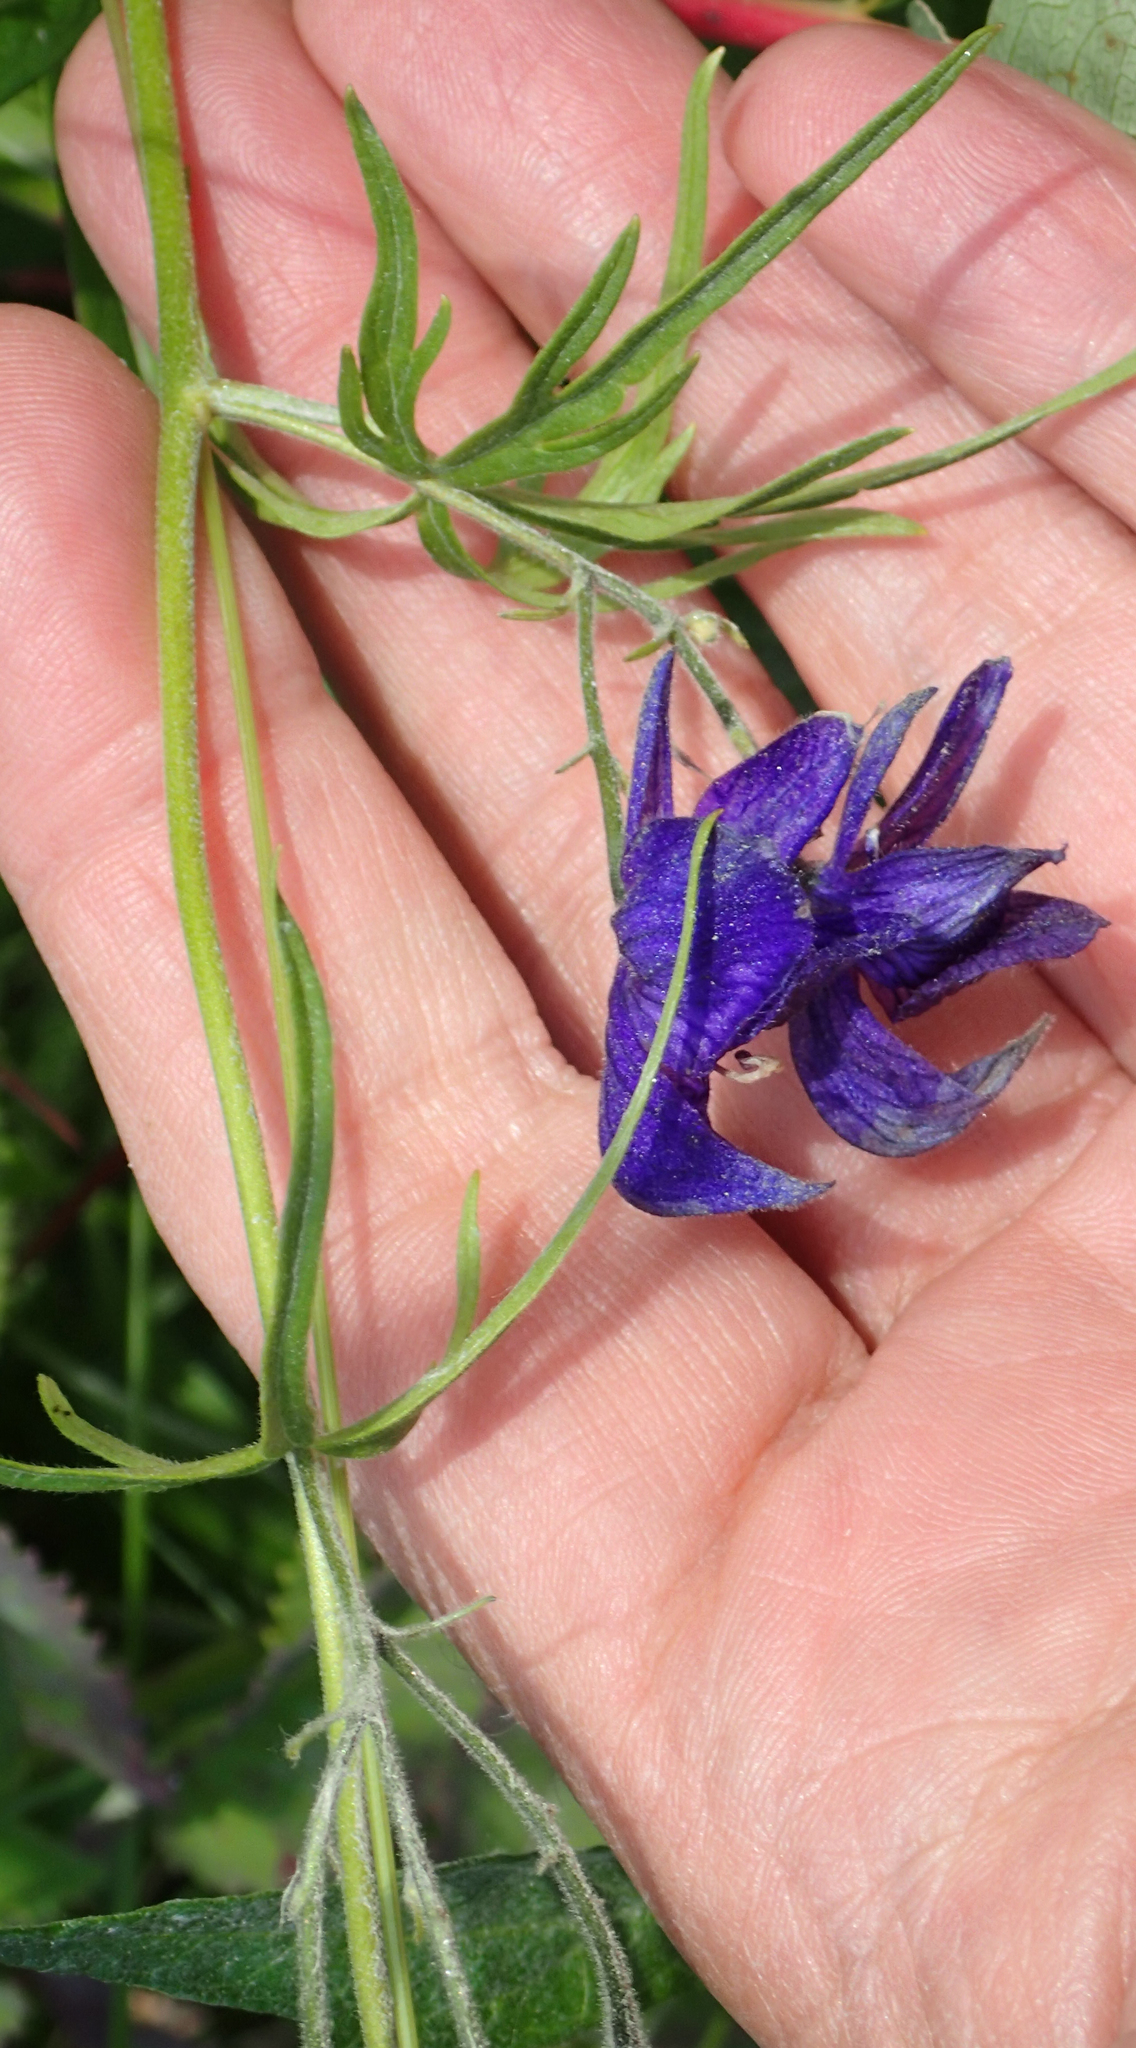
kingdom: Plantae
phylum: Tracheophyta
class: Magnoliopsida
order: Ranunculales
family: Ranunculaceae
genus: Aconitum
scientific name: Aconitum delphiniifolium
